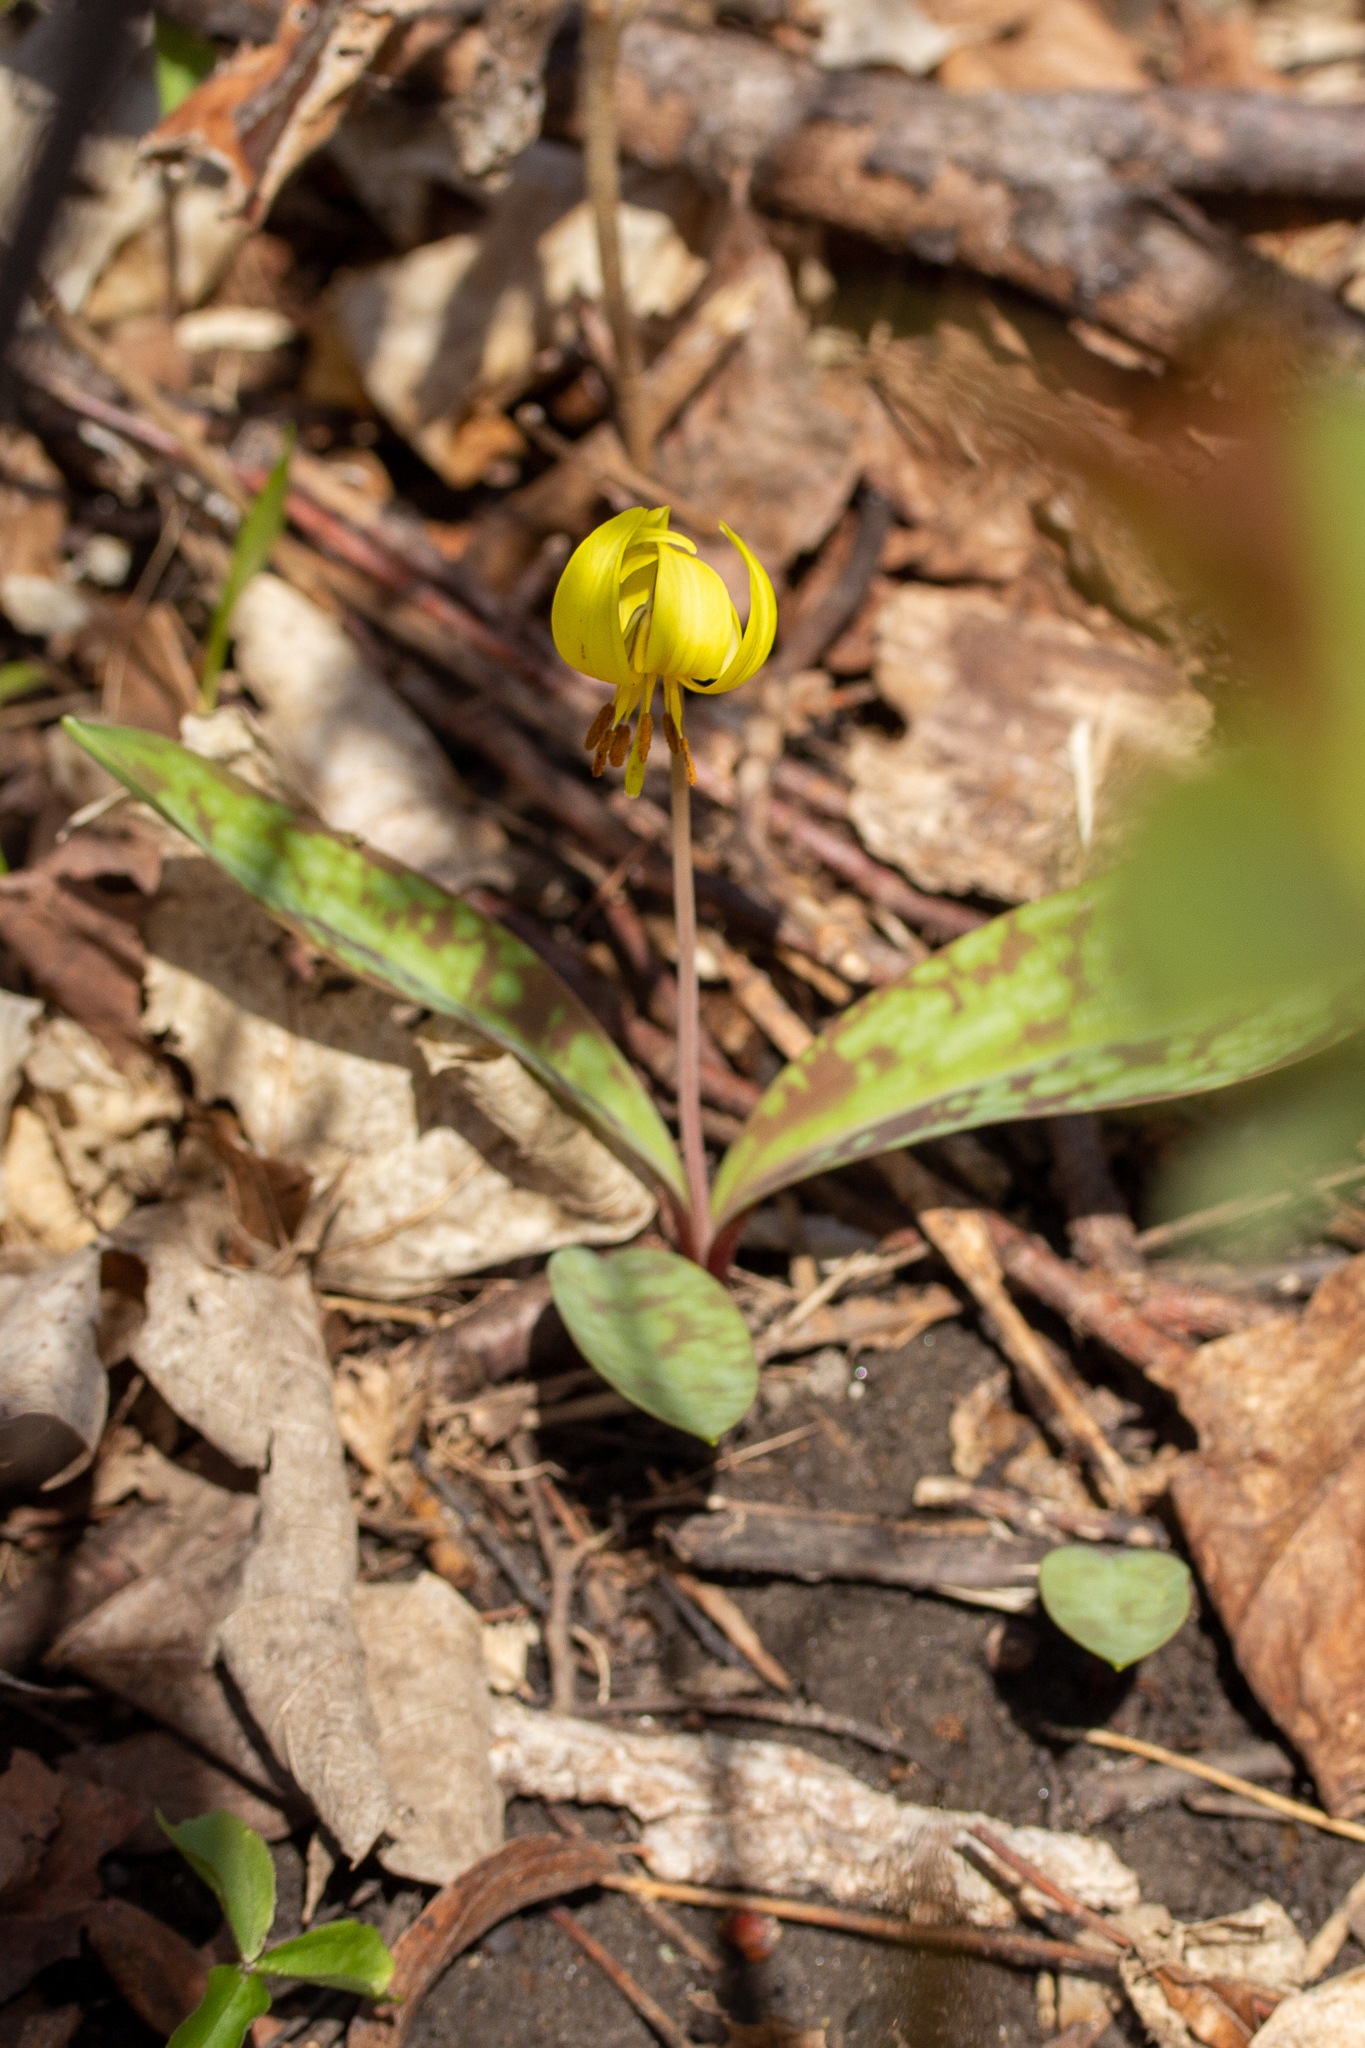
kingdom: Plantae
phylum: Tracheophyta
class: Liliopsida
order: Liliales
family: Liliaceae
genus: Erythronium
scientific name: Erythronium americanum
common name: Yellow adder's-tongue
